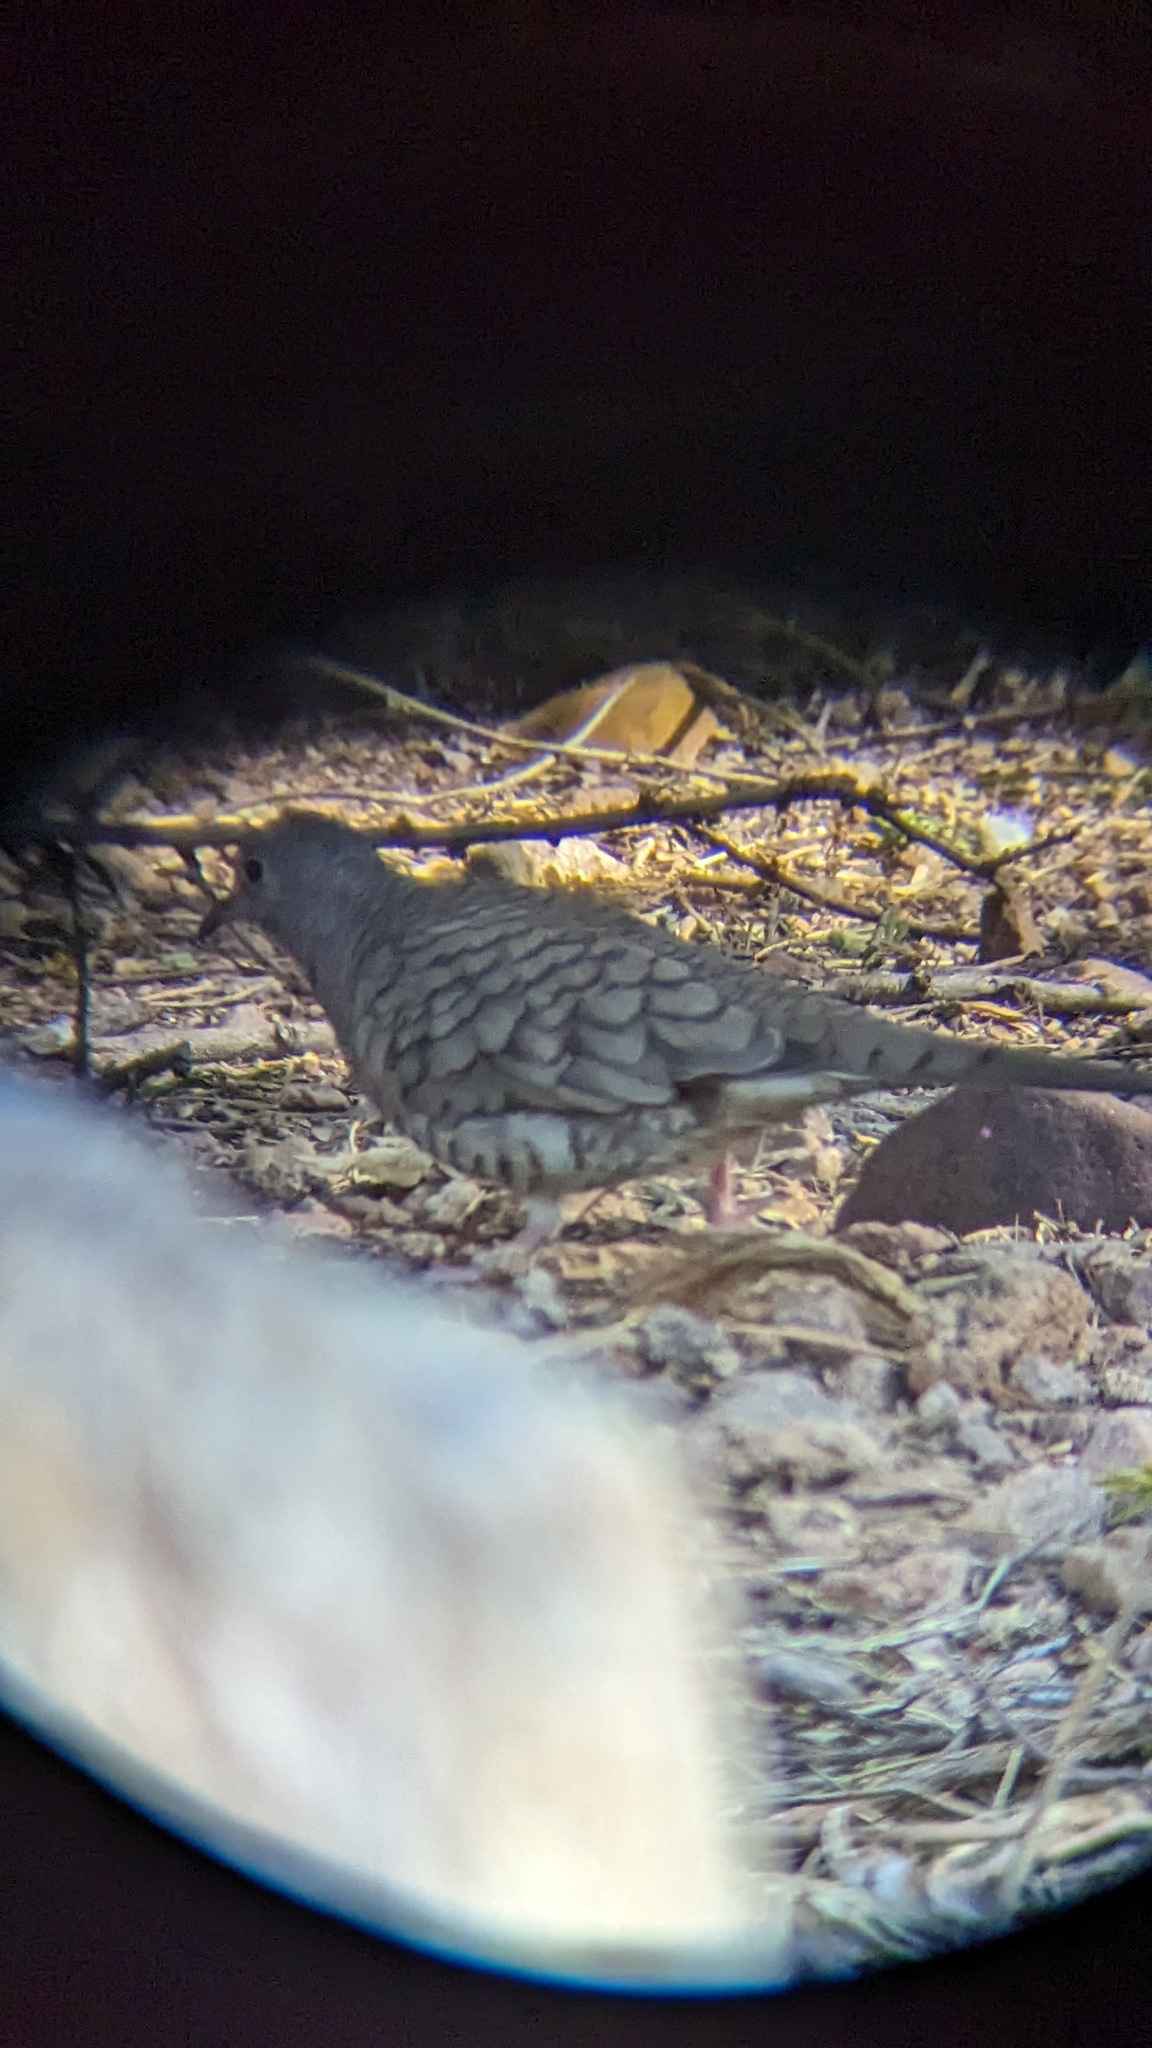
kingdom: Animalia
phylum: Chordata
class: Aves
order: Columbiformes
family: Columbidae
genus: Columbina
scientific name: Columbina inca
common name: Inca dove
